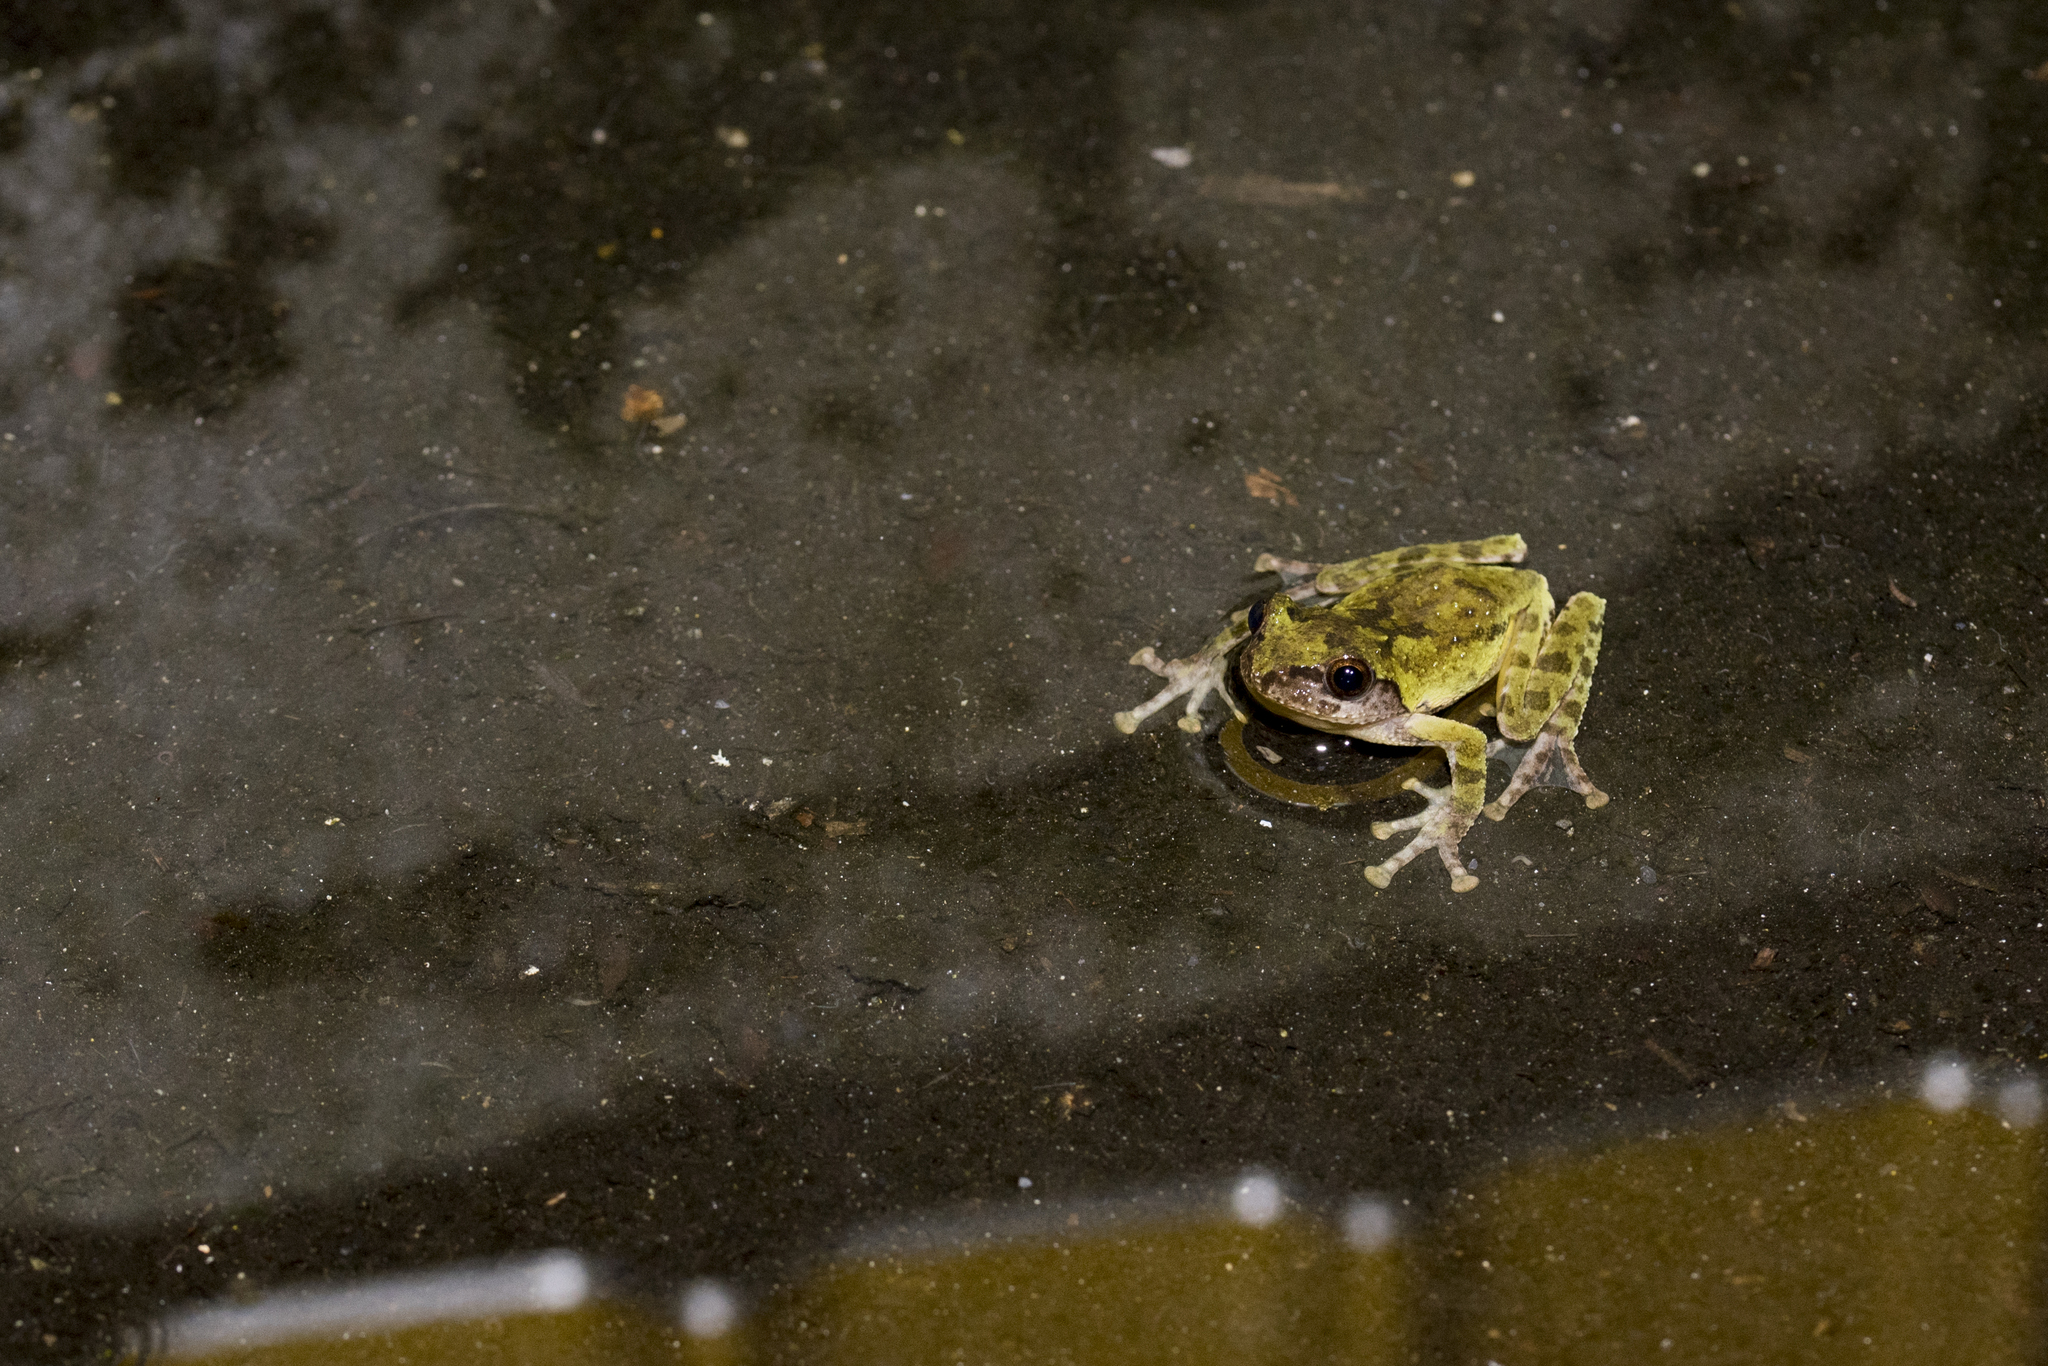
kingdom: Animalia
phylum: Chordata
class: Amphibia
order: Anura
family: Rhacophoridae
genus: Kurixalus
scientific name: Kurixalus eiffingeri
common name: Eiffinger’s treefrog
